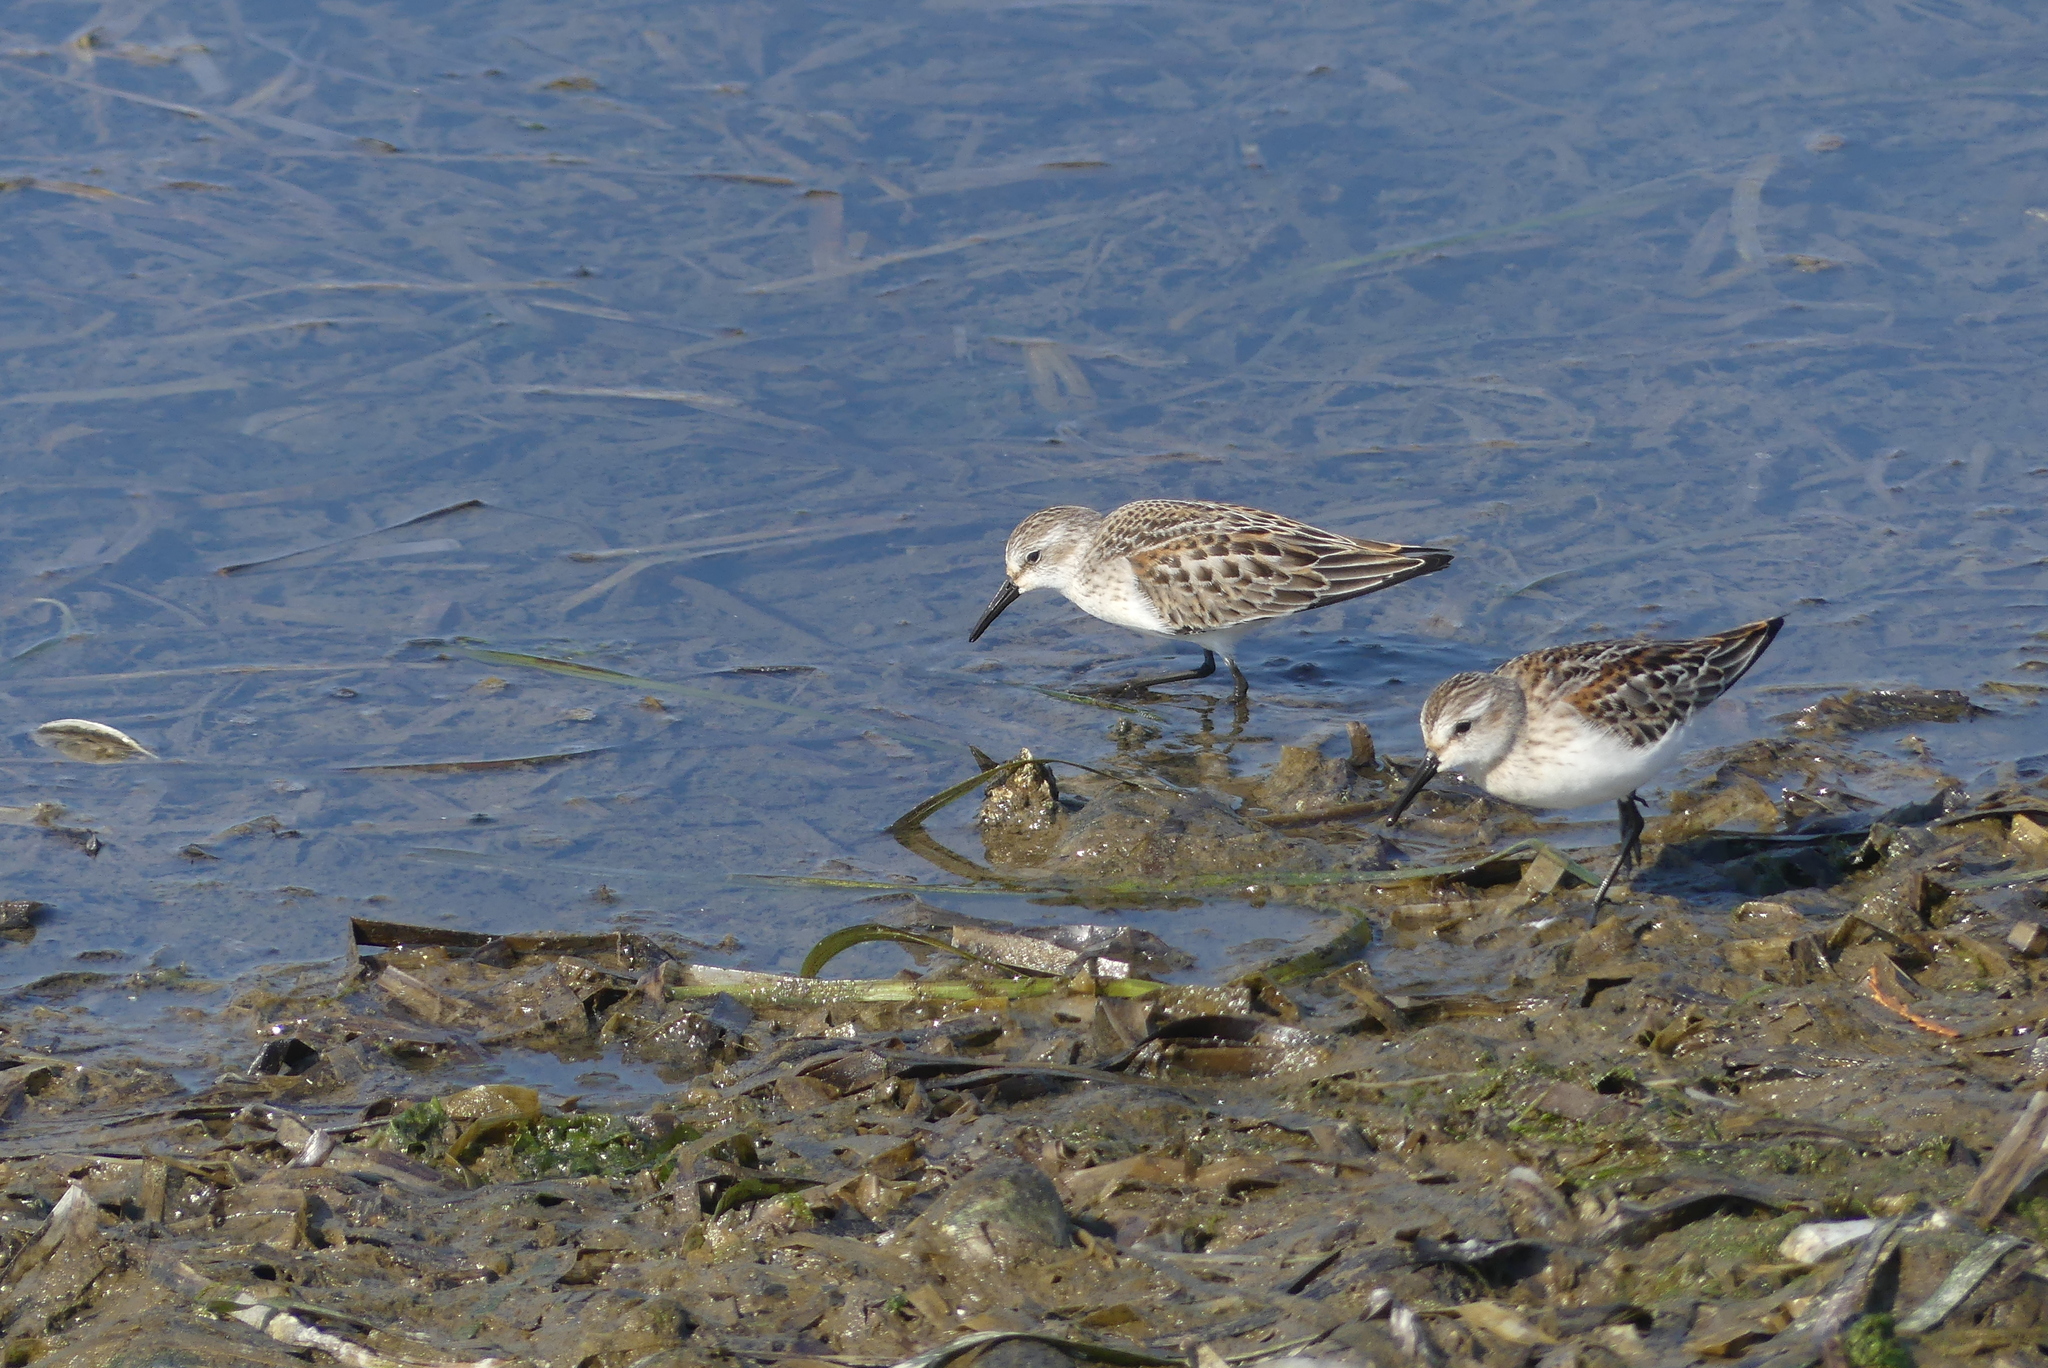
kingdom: Animalia
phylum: Chordata
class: Aves
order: Charadriiformes
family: Scolopacidae
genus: Calidris
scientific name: Calidris mauri
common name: Western sandpiper
